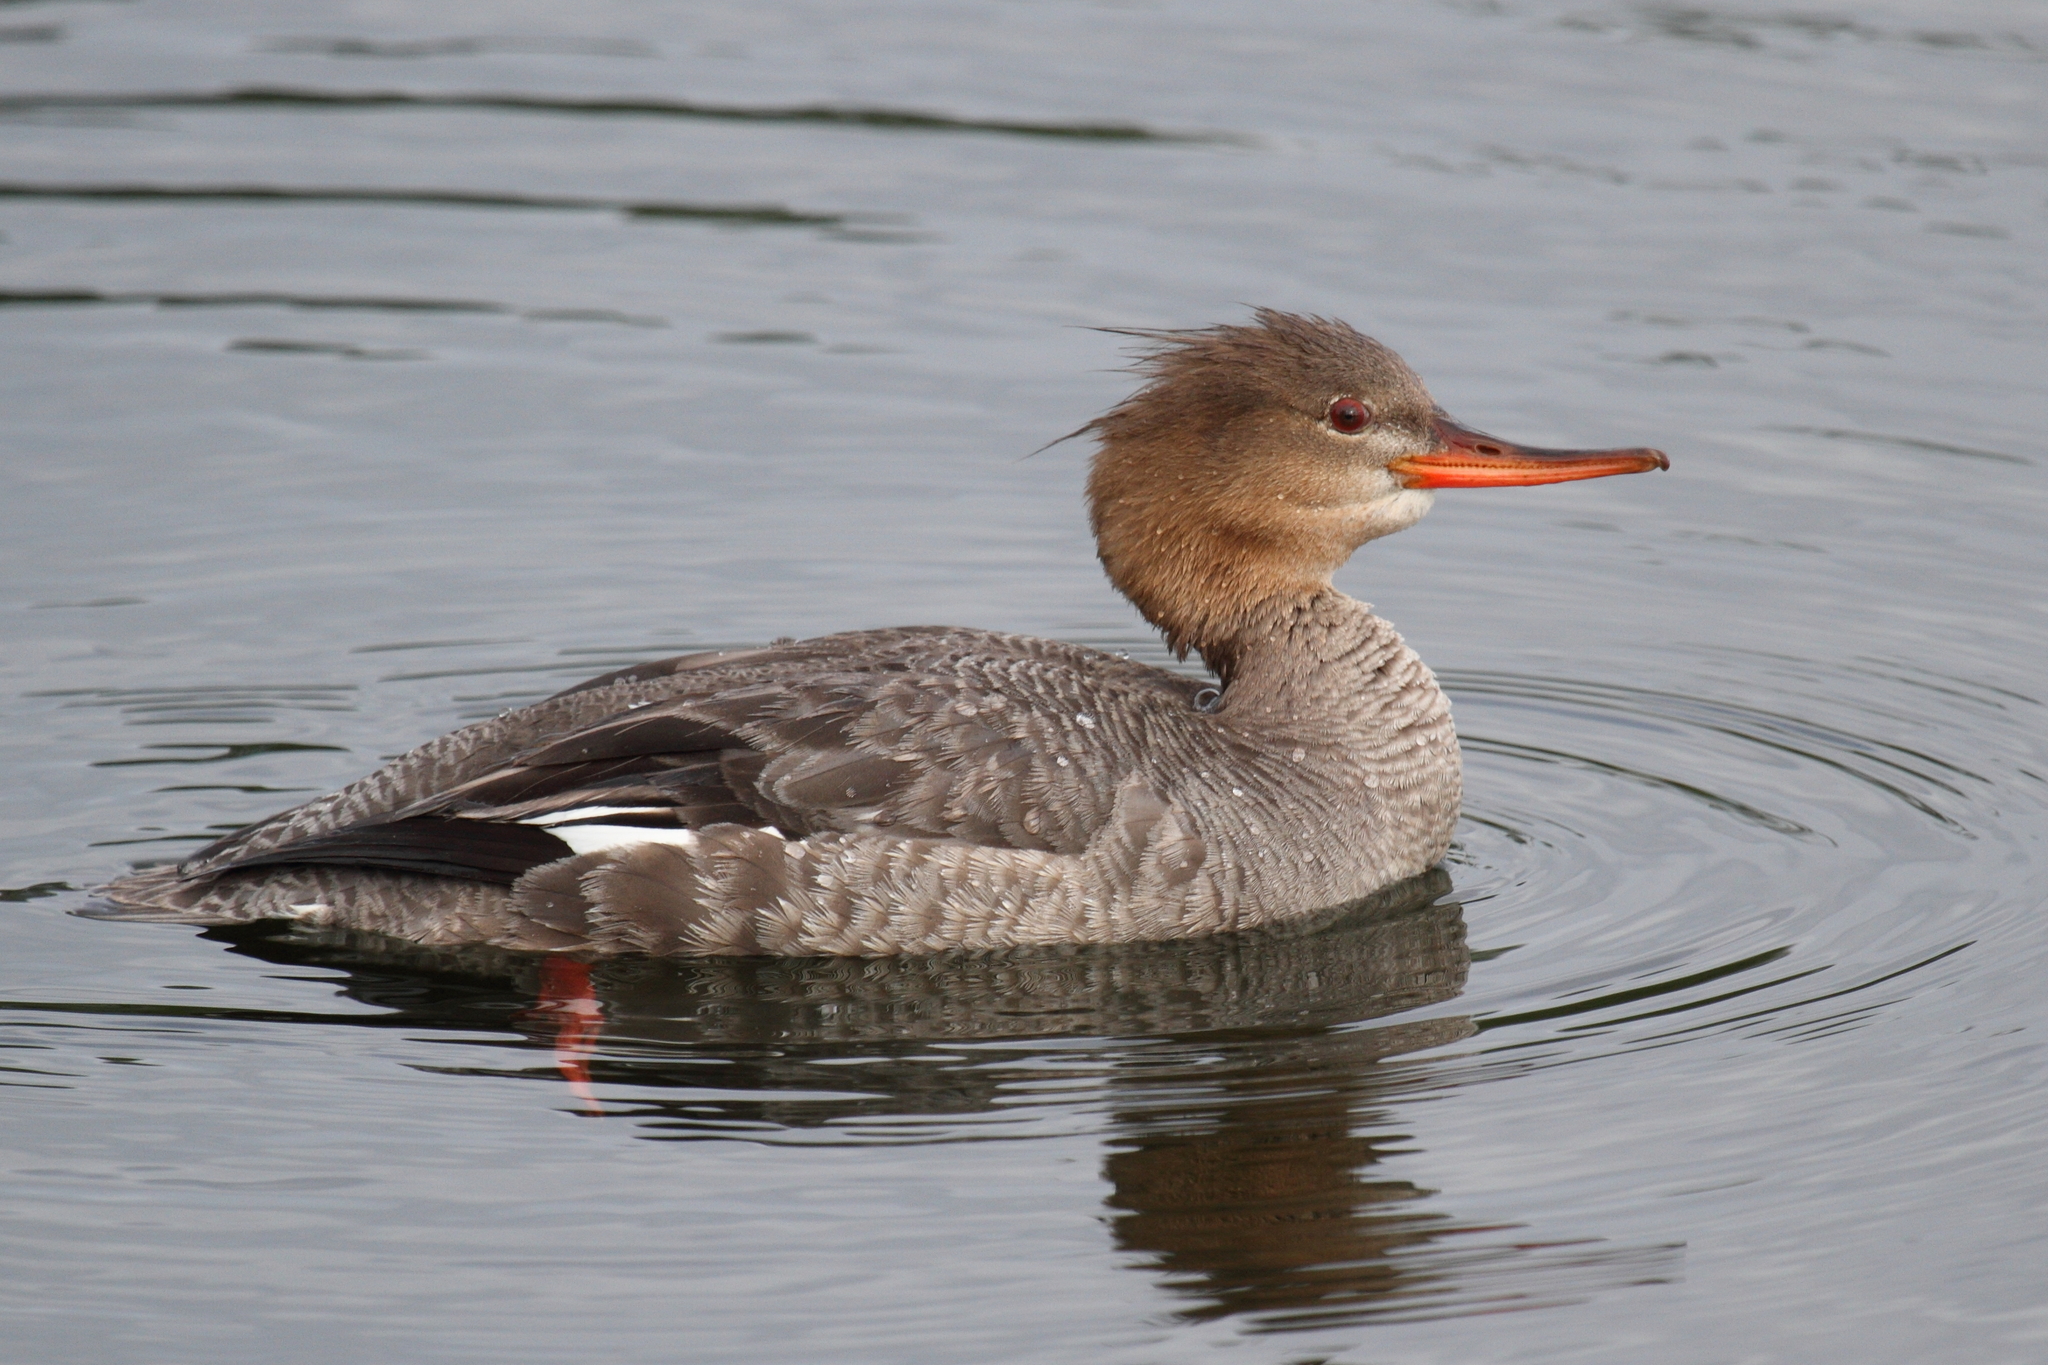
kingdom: Animalia
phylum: Chordata
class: Aves
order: Anseriformes
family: Anatidae
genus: Mergus
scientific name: Mergus serrator
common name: Red-breasted merganser
